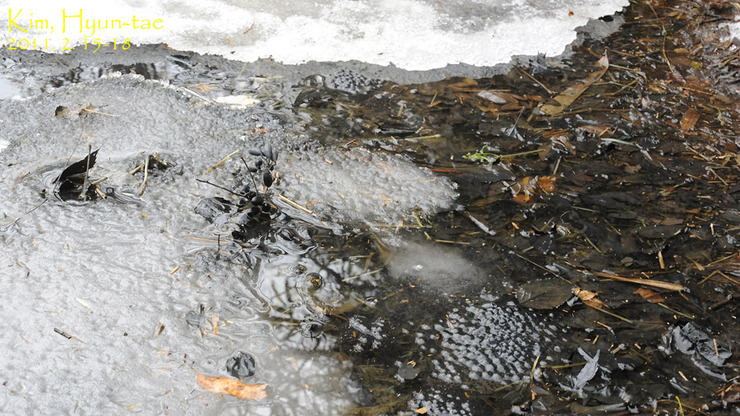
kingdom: Animalia
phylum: Chordata
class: Amphibia
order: Anura
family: Ranidae
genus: Rana
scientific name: Rana uenoi
